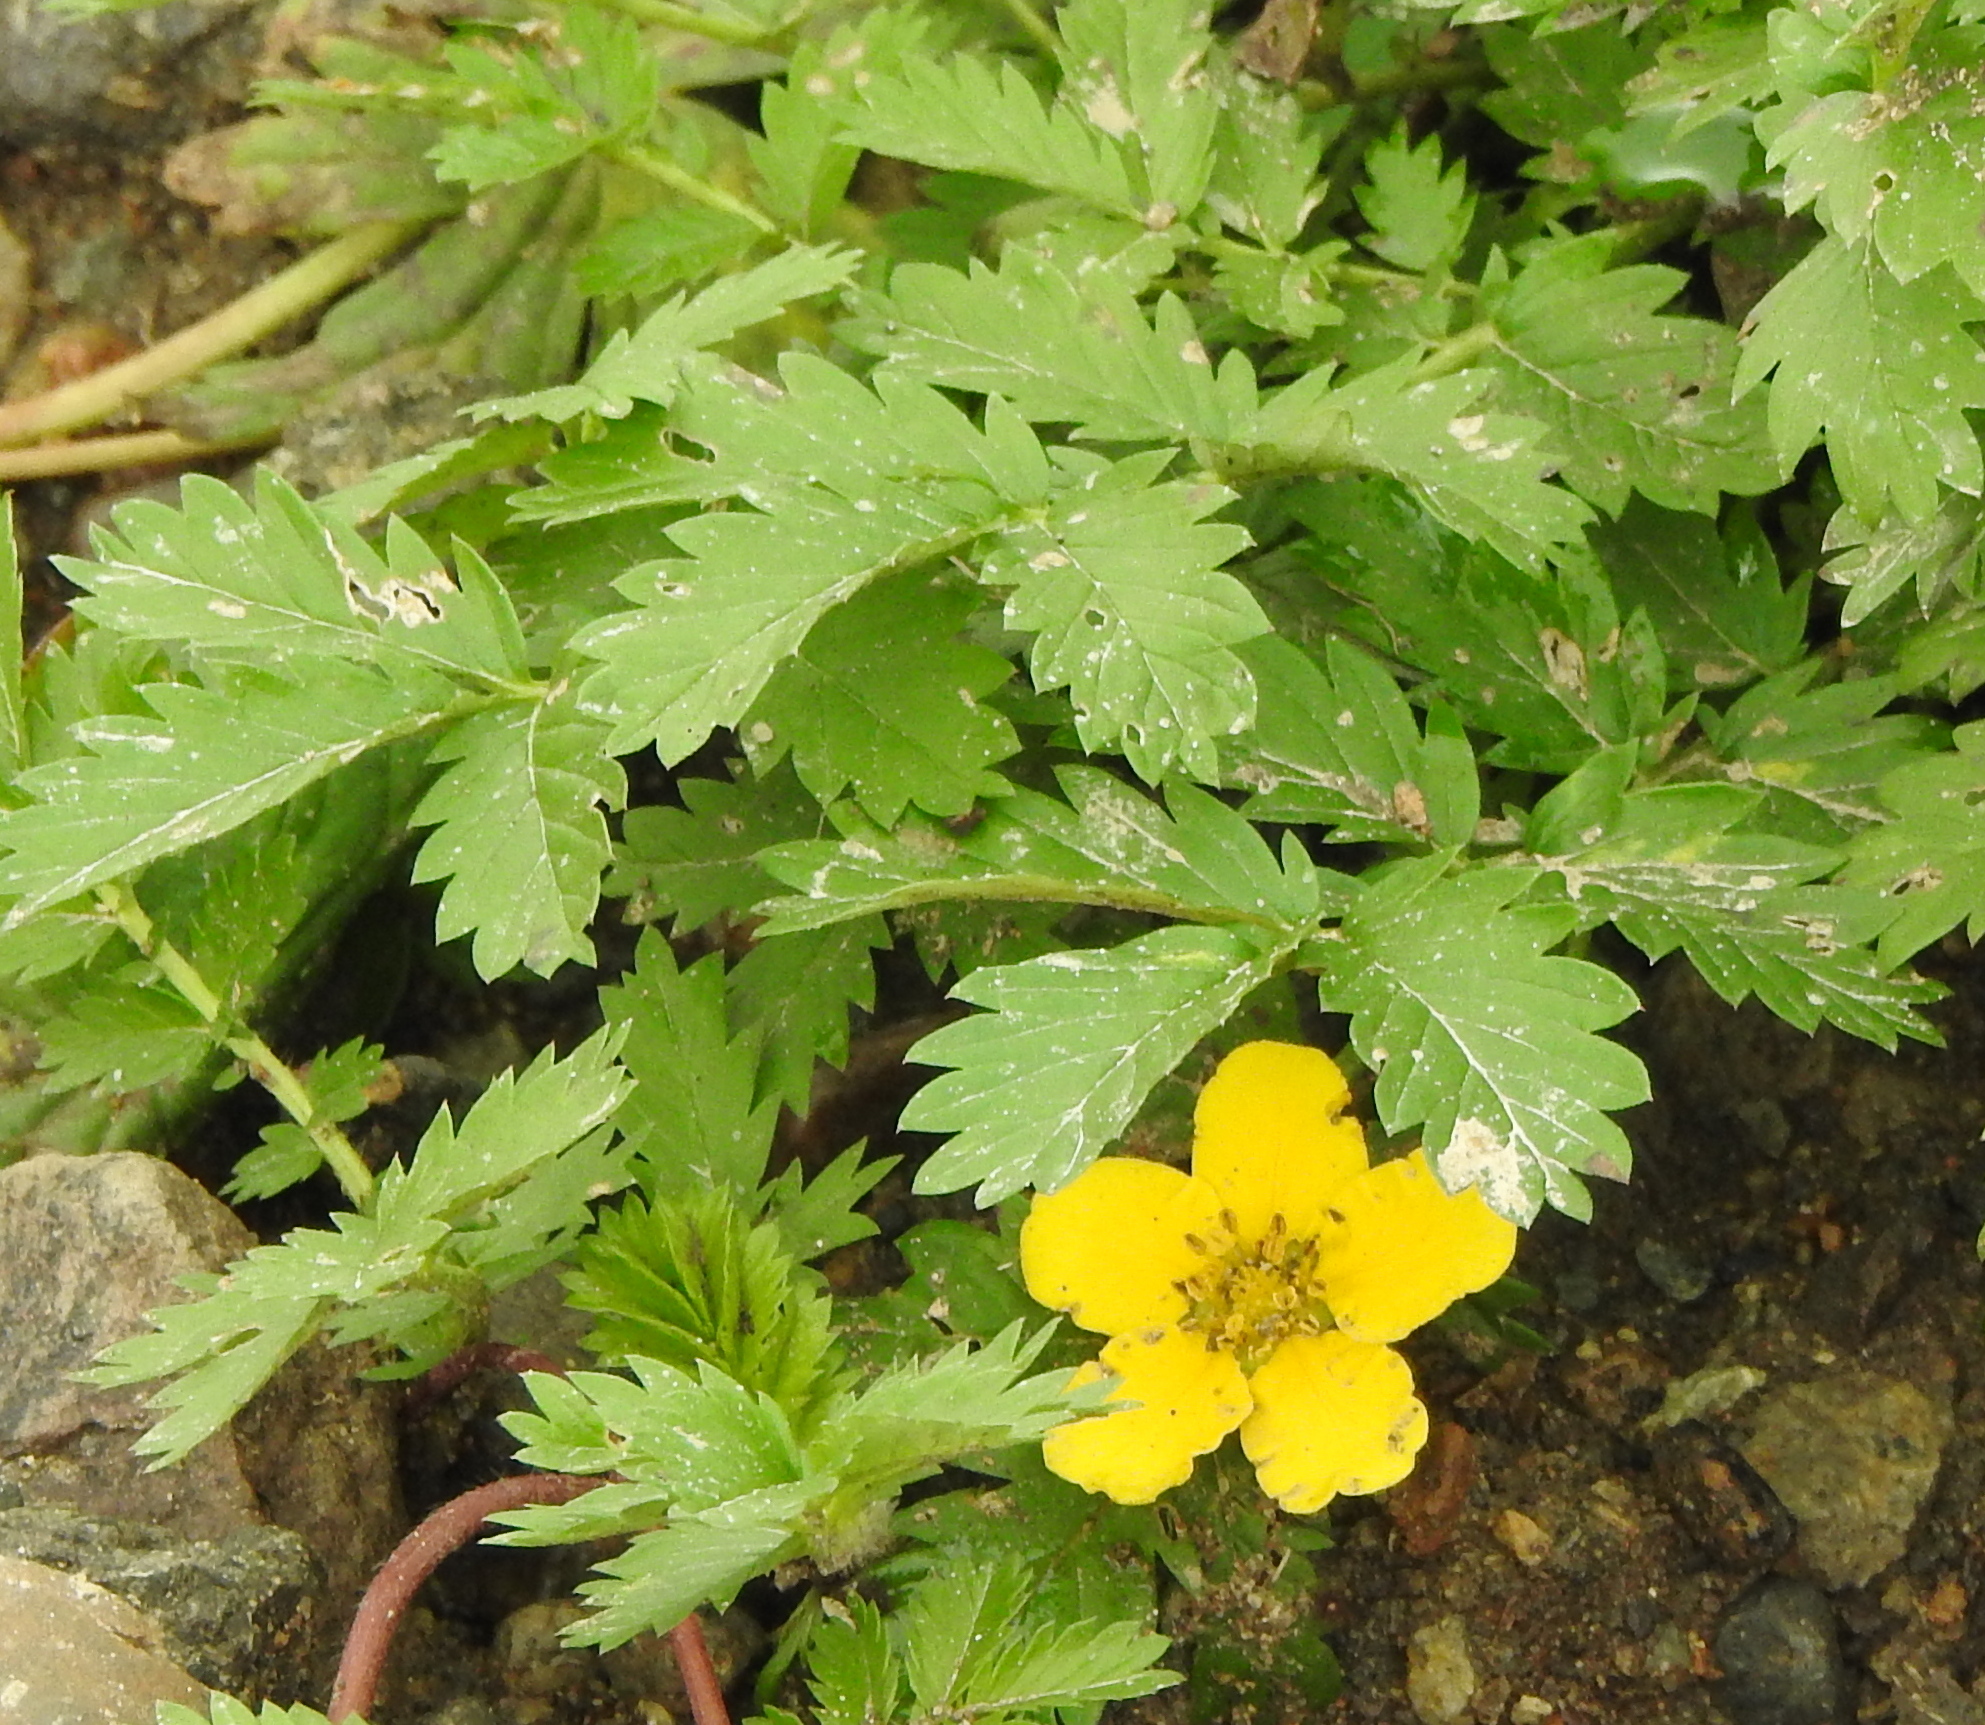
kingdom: Plantae
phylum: Tracheophyta
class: Magnoliopsida
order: Rosales
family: Rosaceae
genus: Argentina
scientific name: Argentina anserina
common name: Common silverweed
